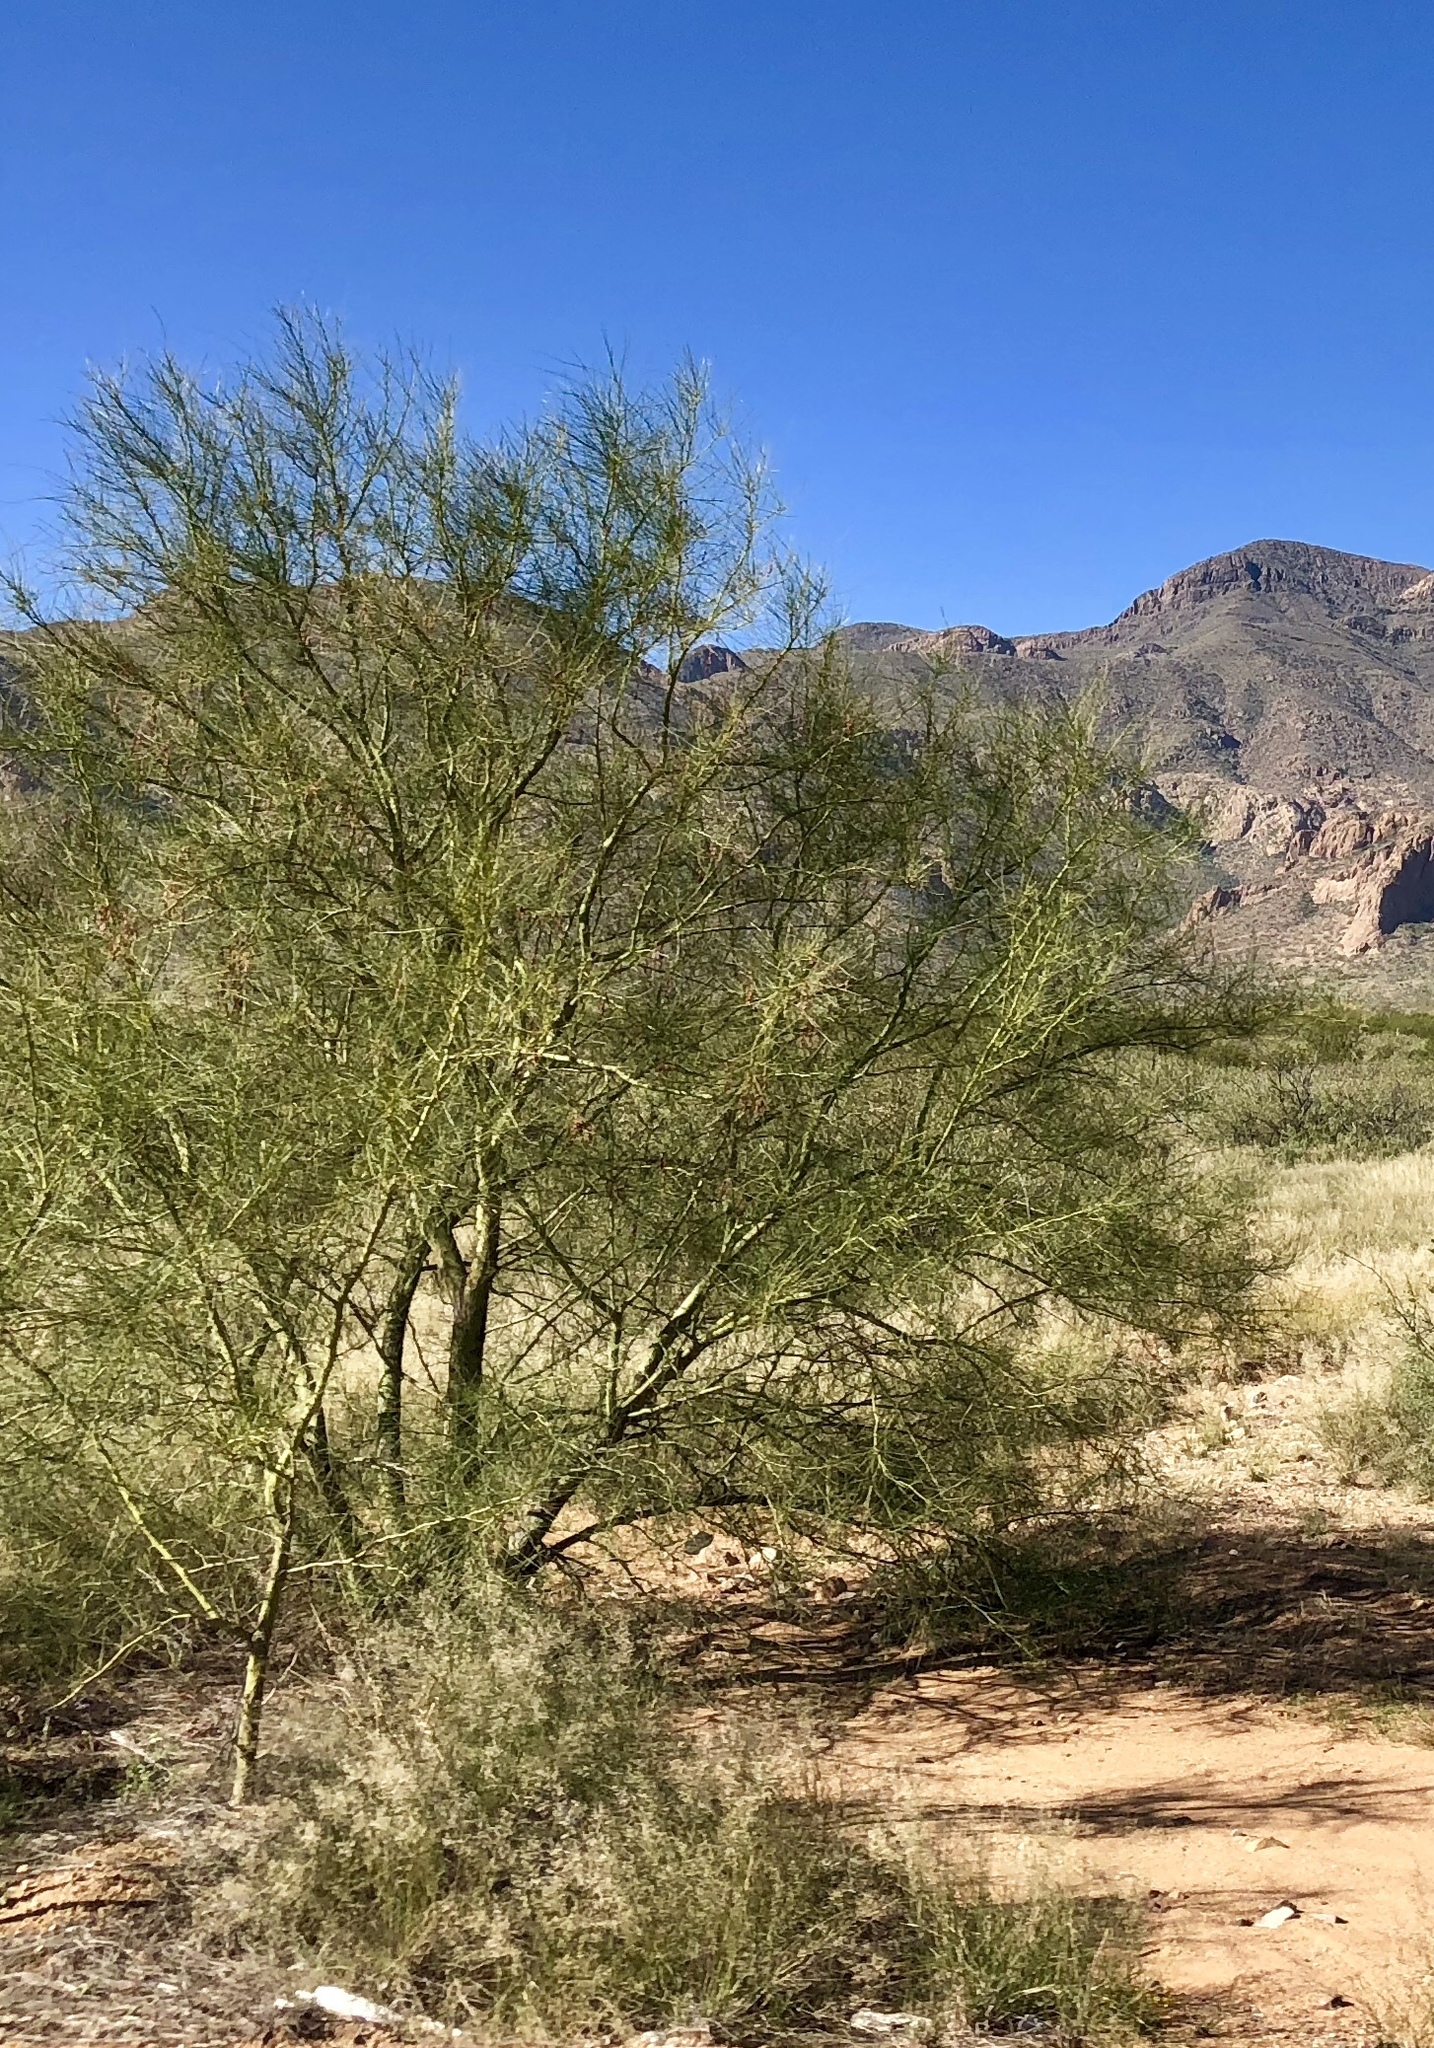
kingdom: Plantae
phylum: Tracheophyta
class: Magnoliopsida
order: Fabales
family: Fabaceae
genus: Parkinsonia
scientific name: Parkinsonia aculeata
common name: Jerusalem thorn
